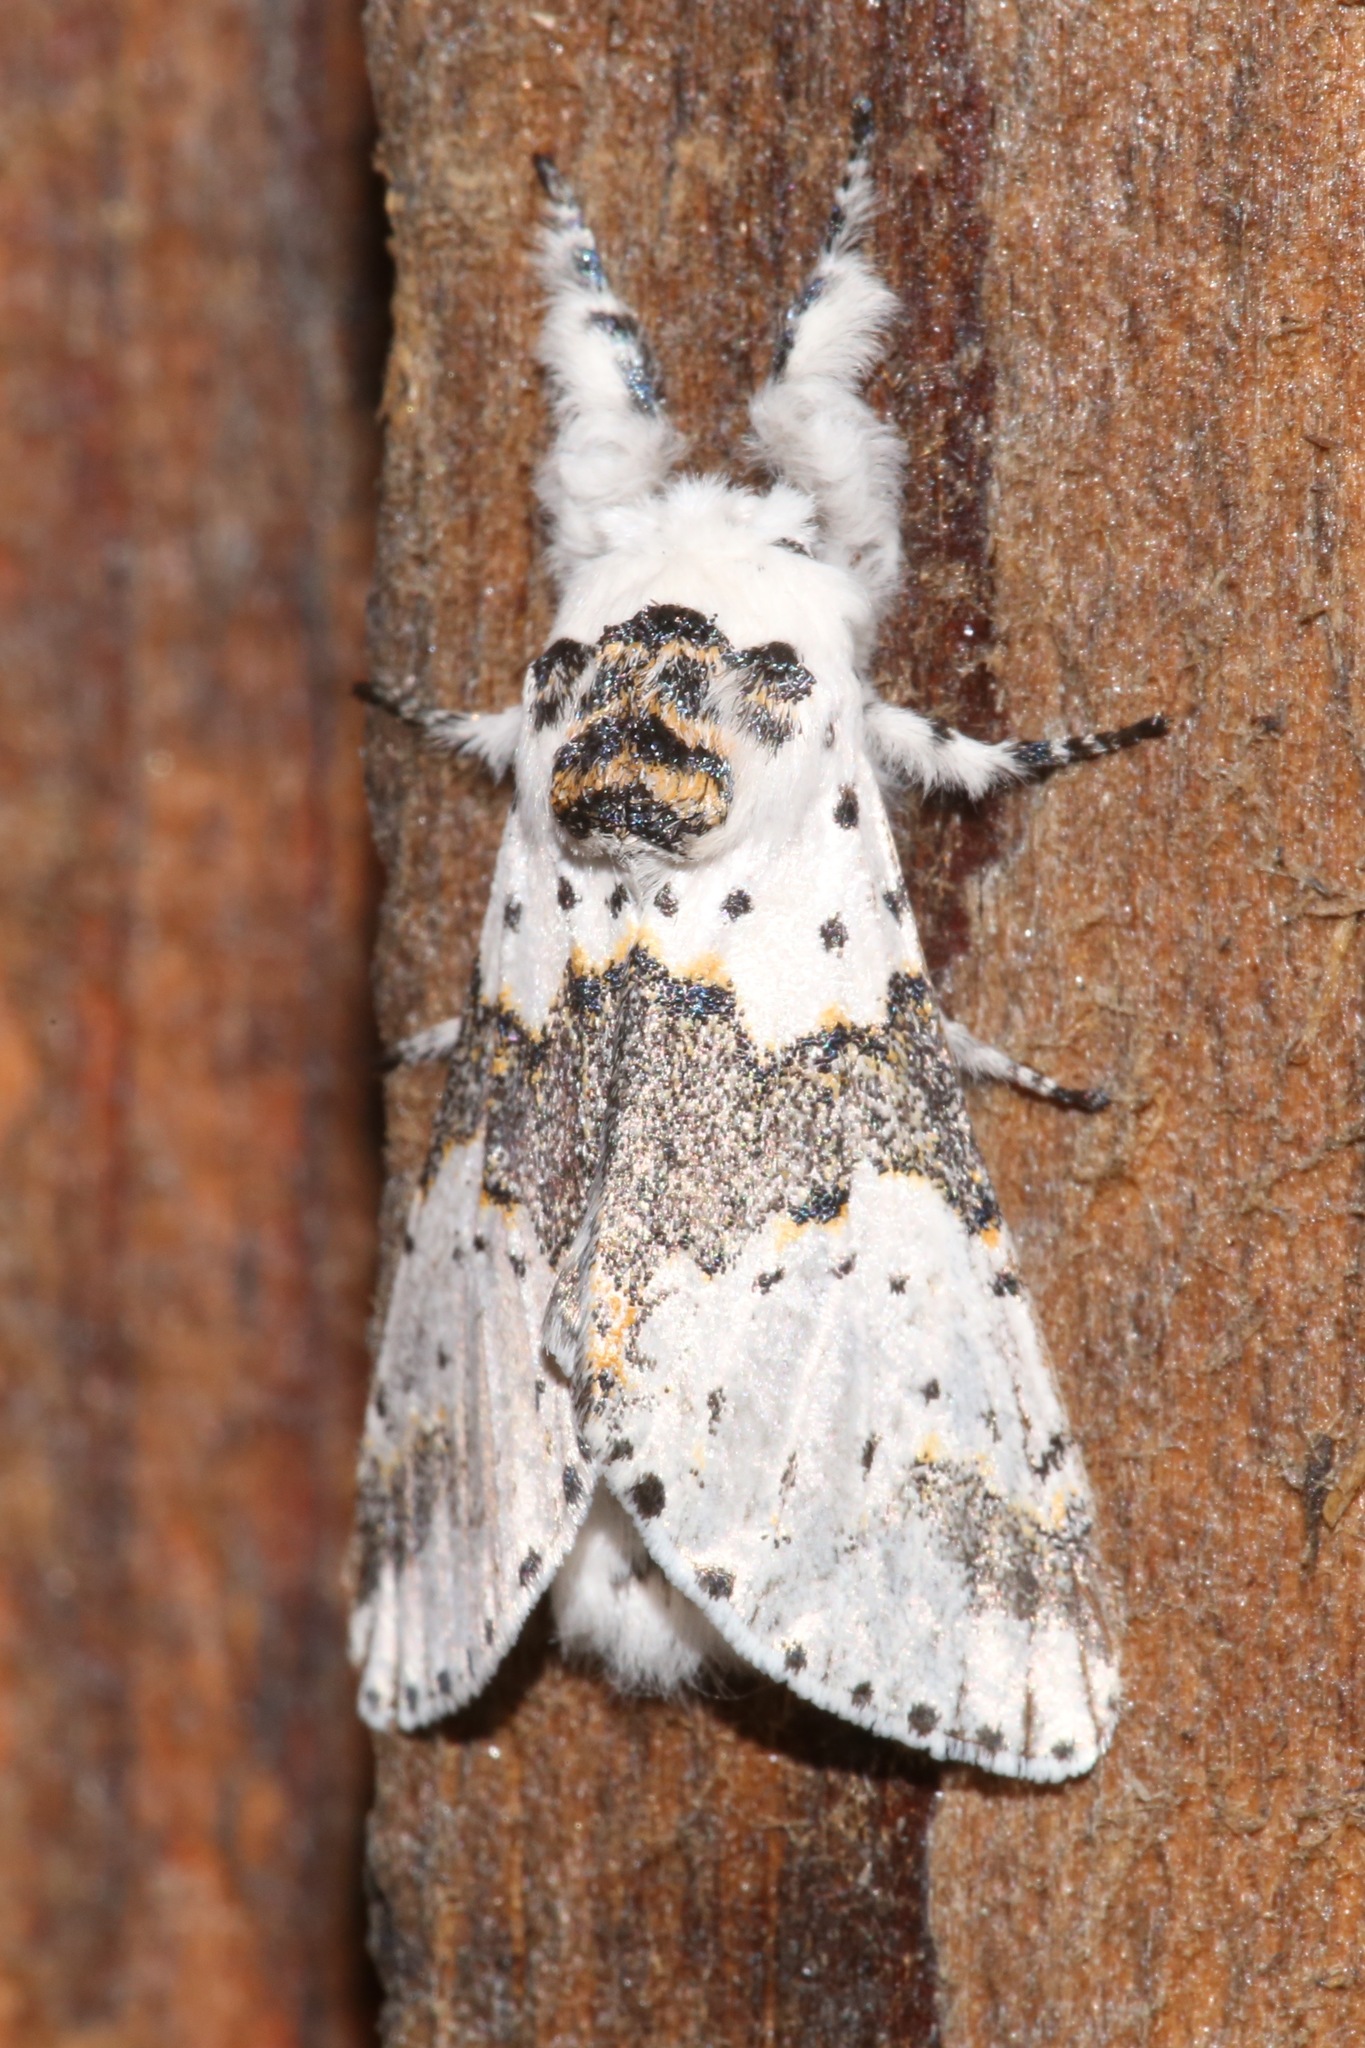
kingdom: Animalia
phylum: Arthropoda
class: Insecta
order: Lepidoptera
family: Notodontidae
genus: Furcula
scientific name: Furcula borealis
